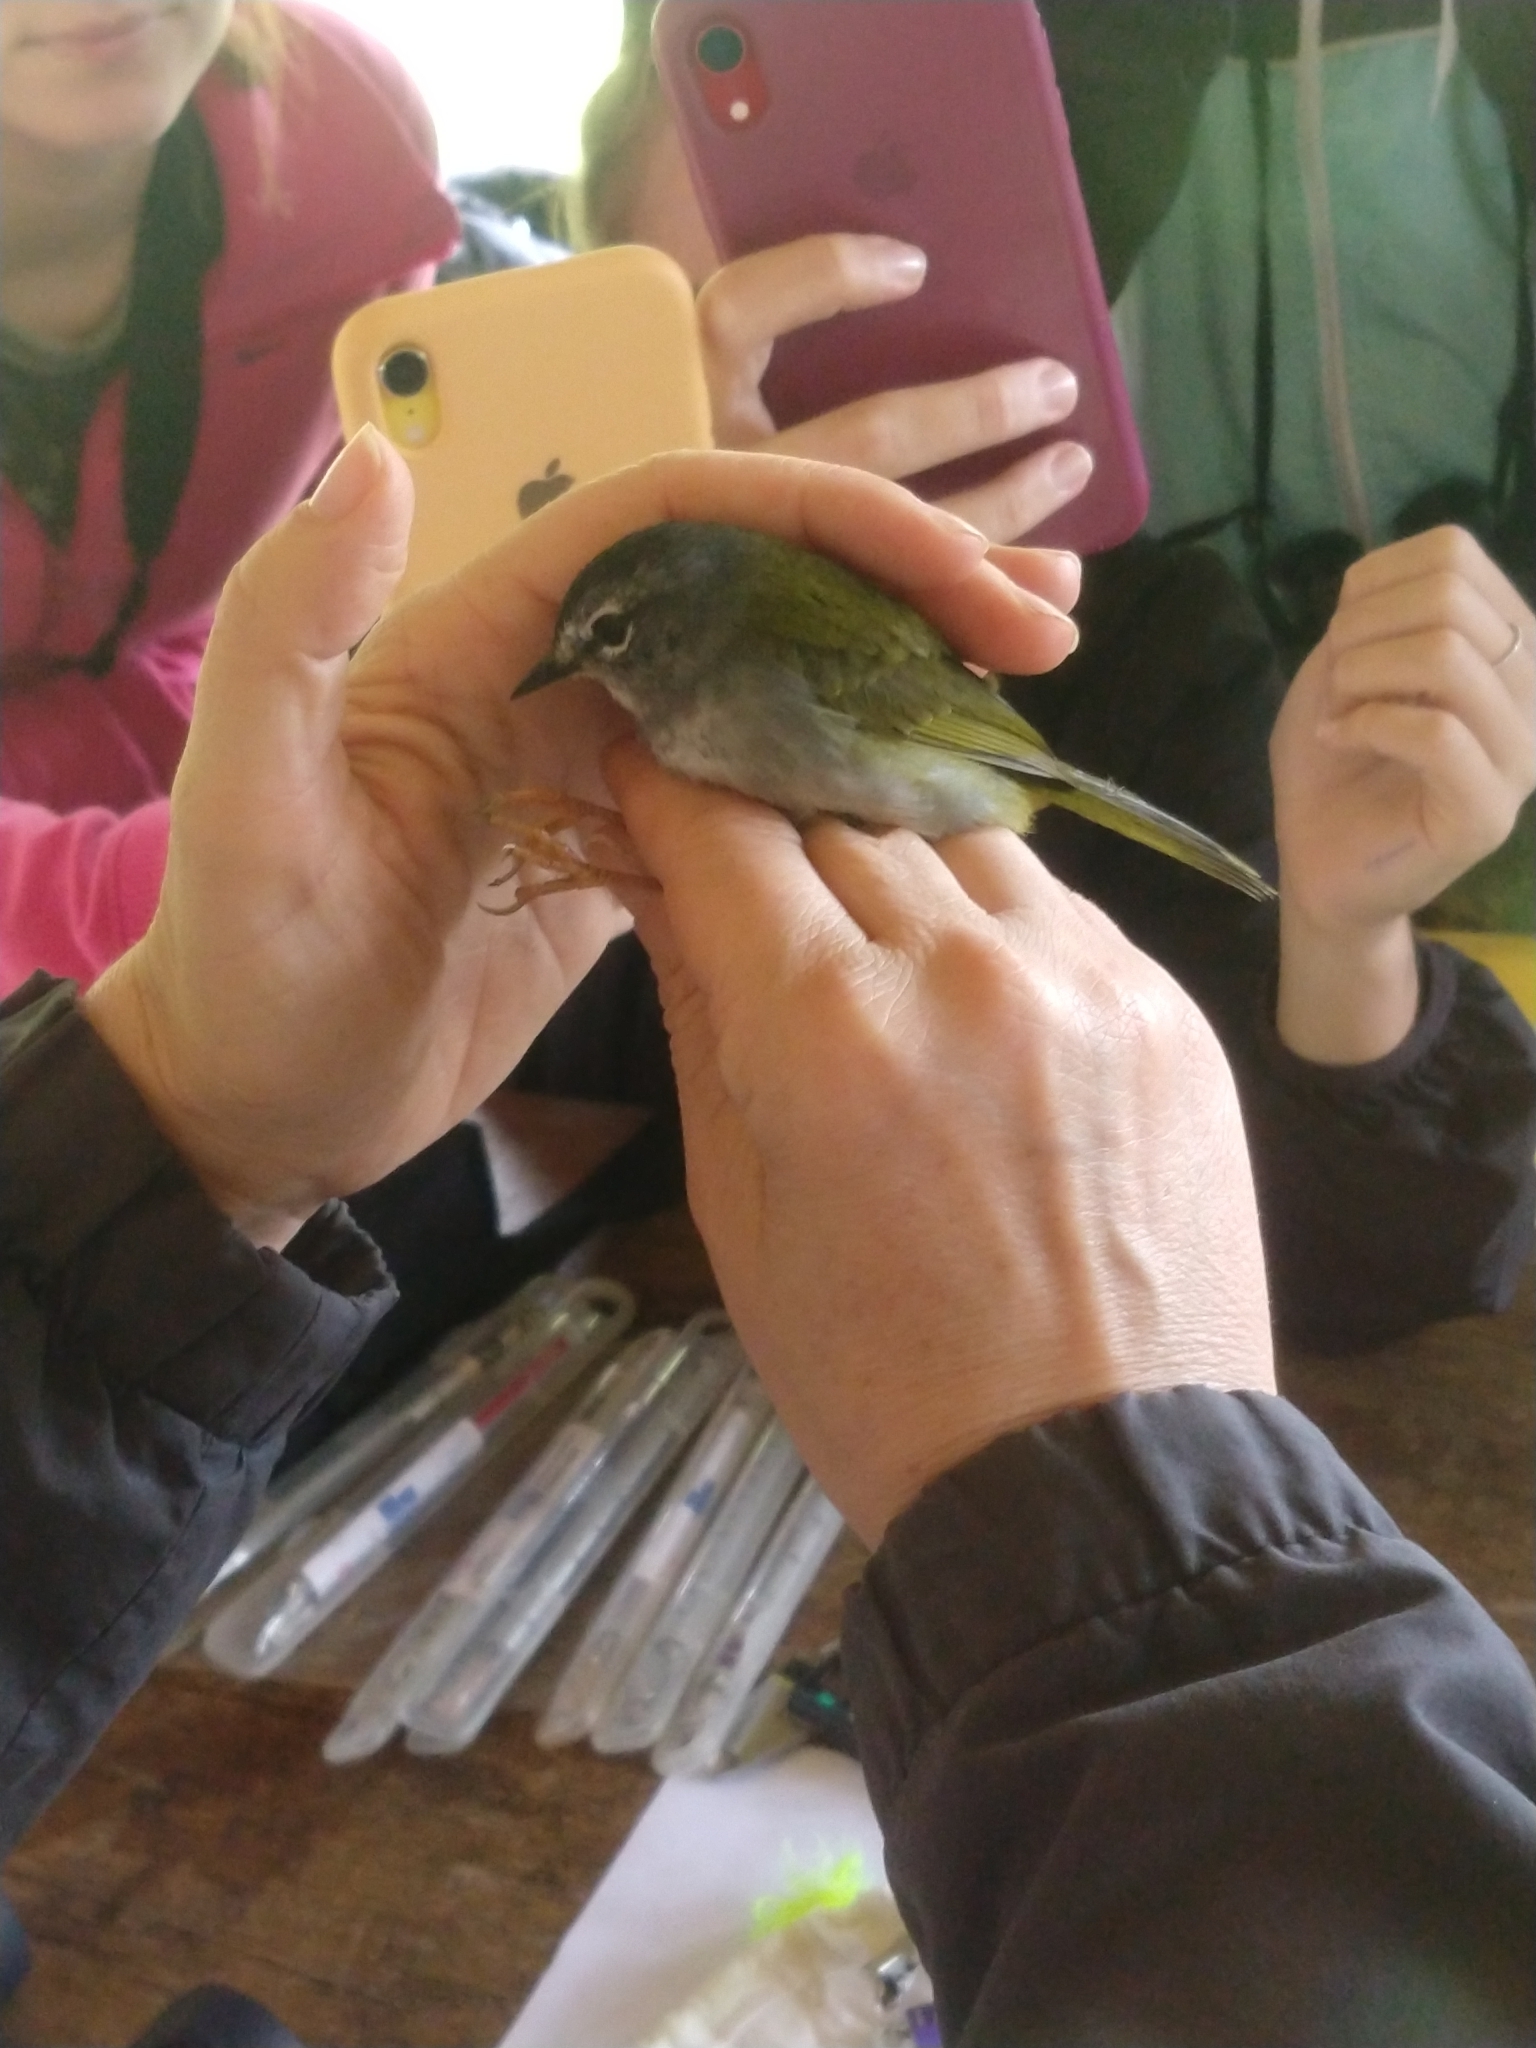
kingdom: Animalia
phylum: Chordata
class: Aves
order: Passeriformes
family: Parulidae
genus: Myiothlypis
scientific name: Myiothlypis leucoblephara
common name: White-rimmed warbler
